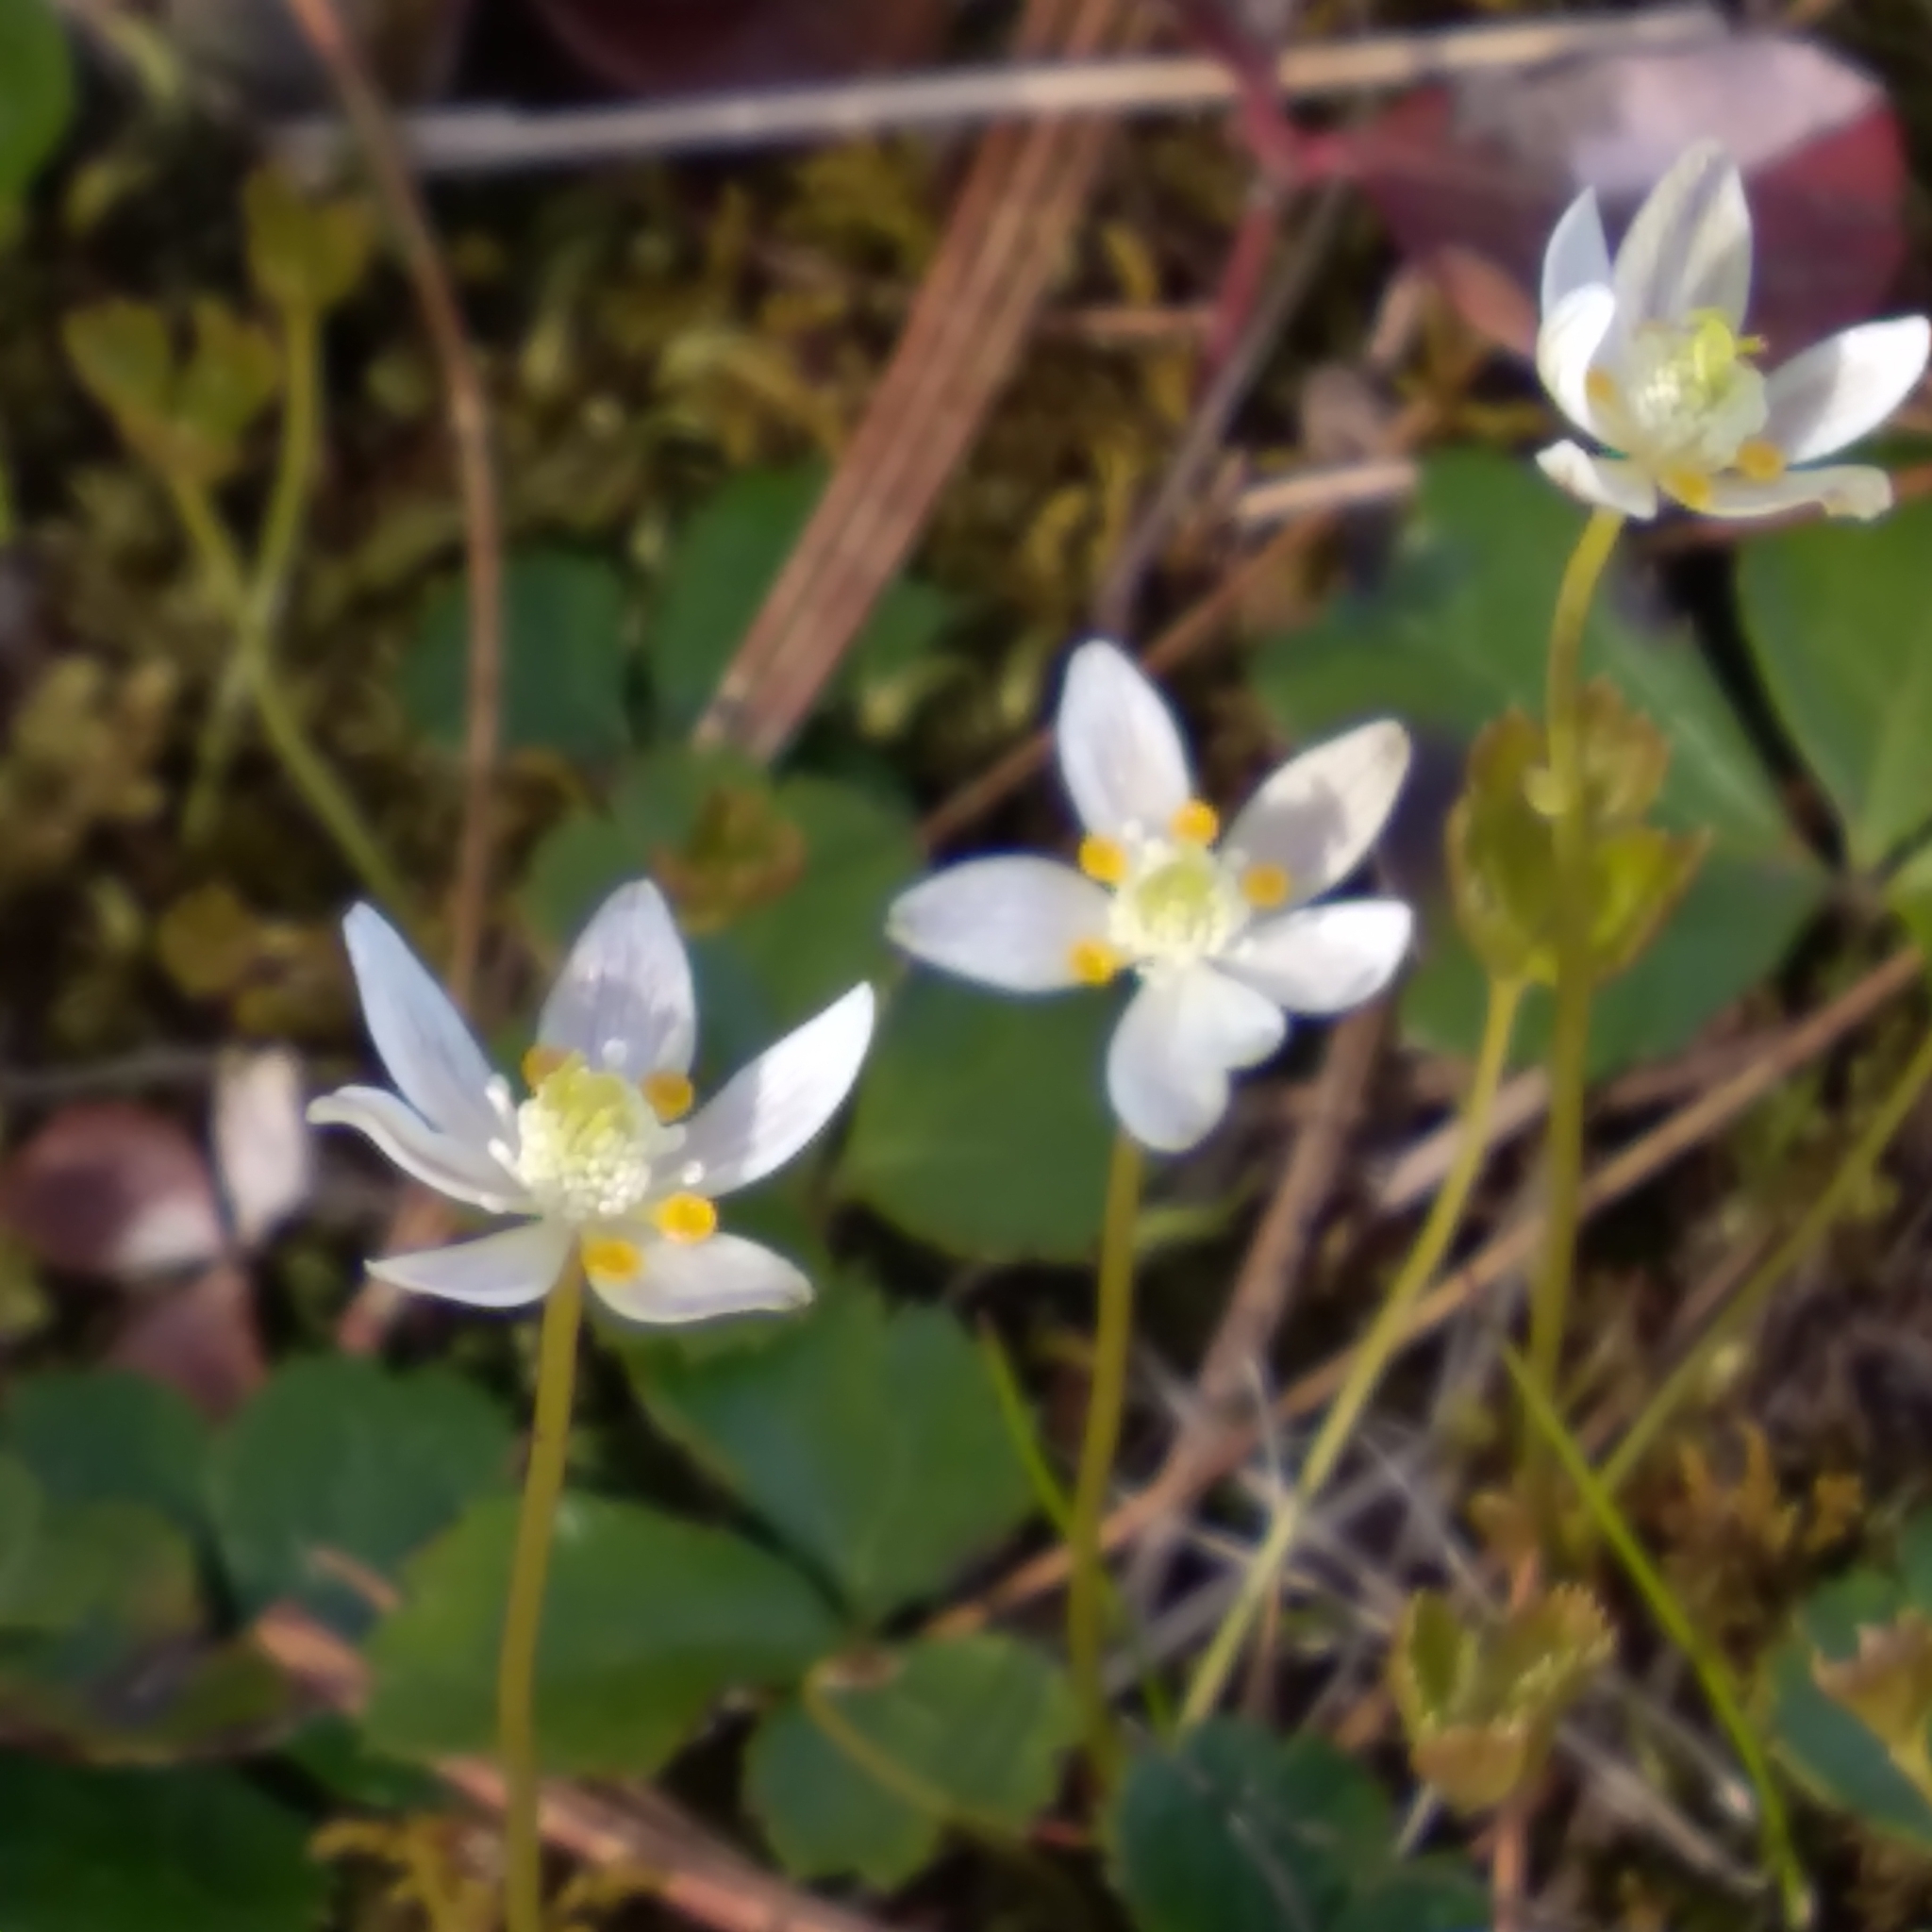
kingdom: Plantae
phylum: Tracheophyta
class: Magnoliopsida
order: Ranunculales
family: Ranunculaceae
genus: Coptis
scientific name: Coptis trifolia
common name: Canker-root
